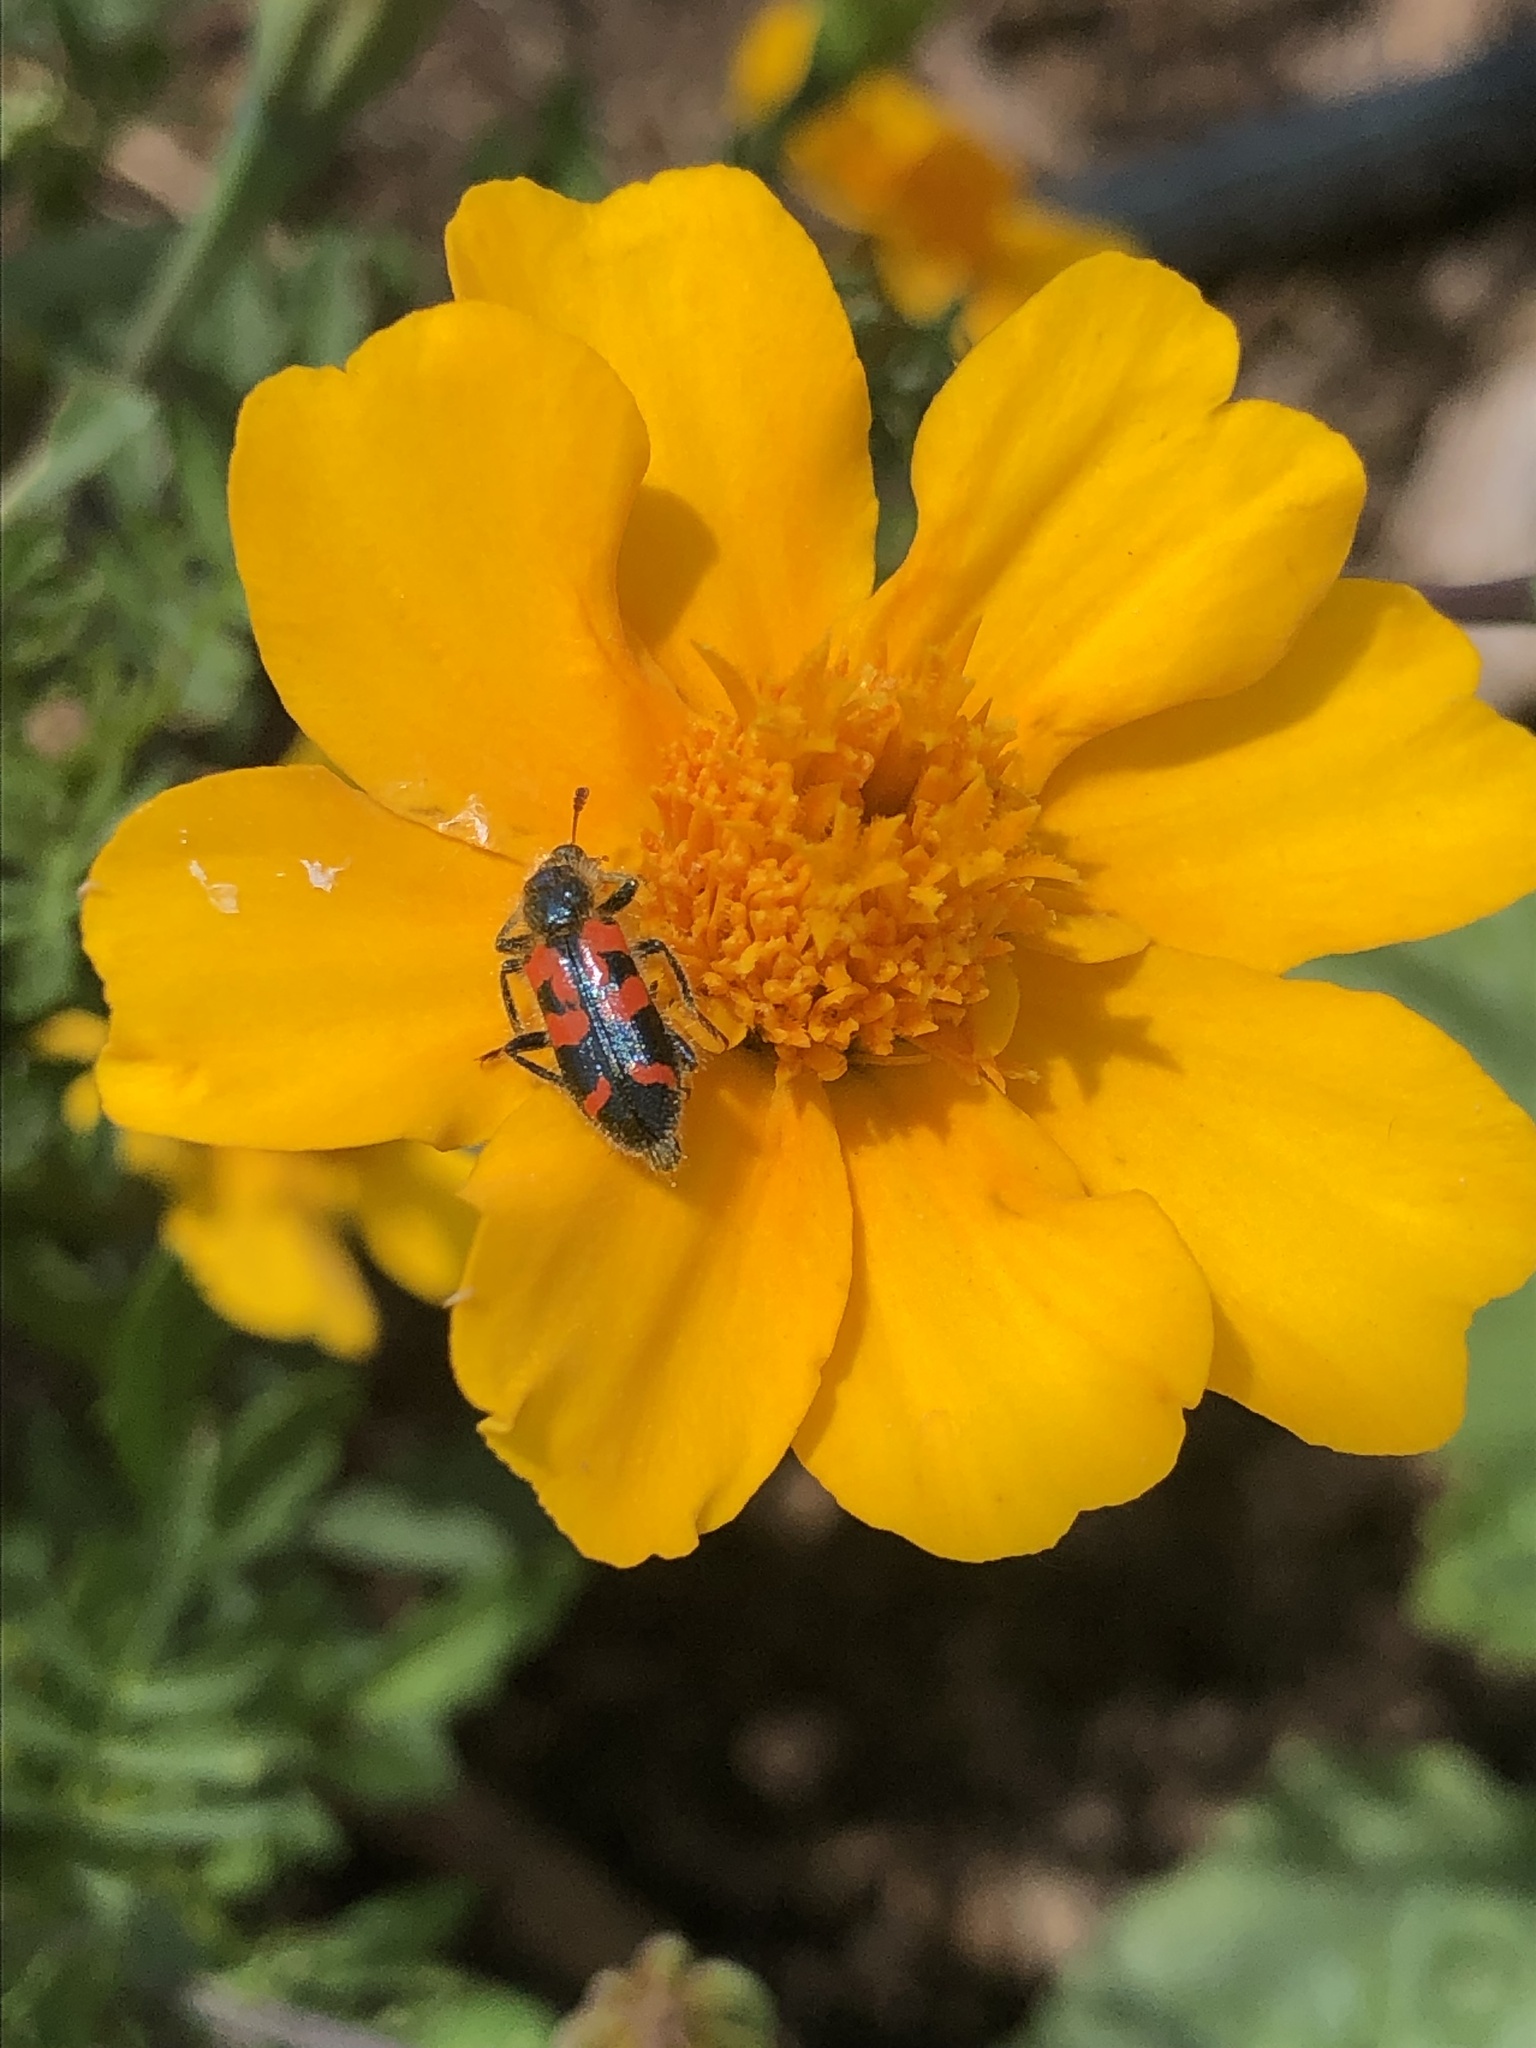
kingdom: Animalia
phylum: Arthropoda
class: Insecta
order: Coleoptera
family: Cleridae
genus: Trichodes
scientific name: Trichodes ornatus
